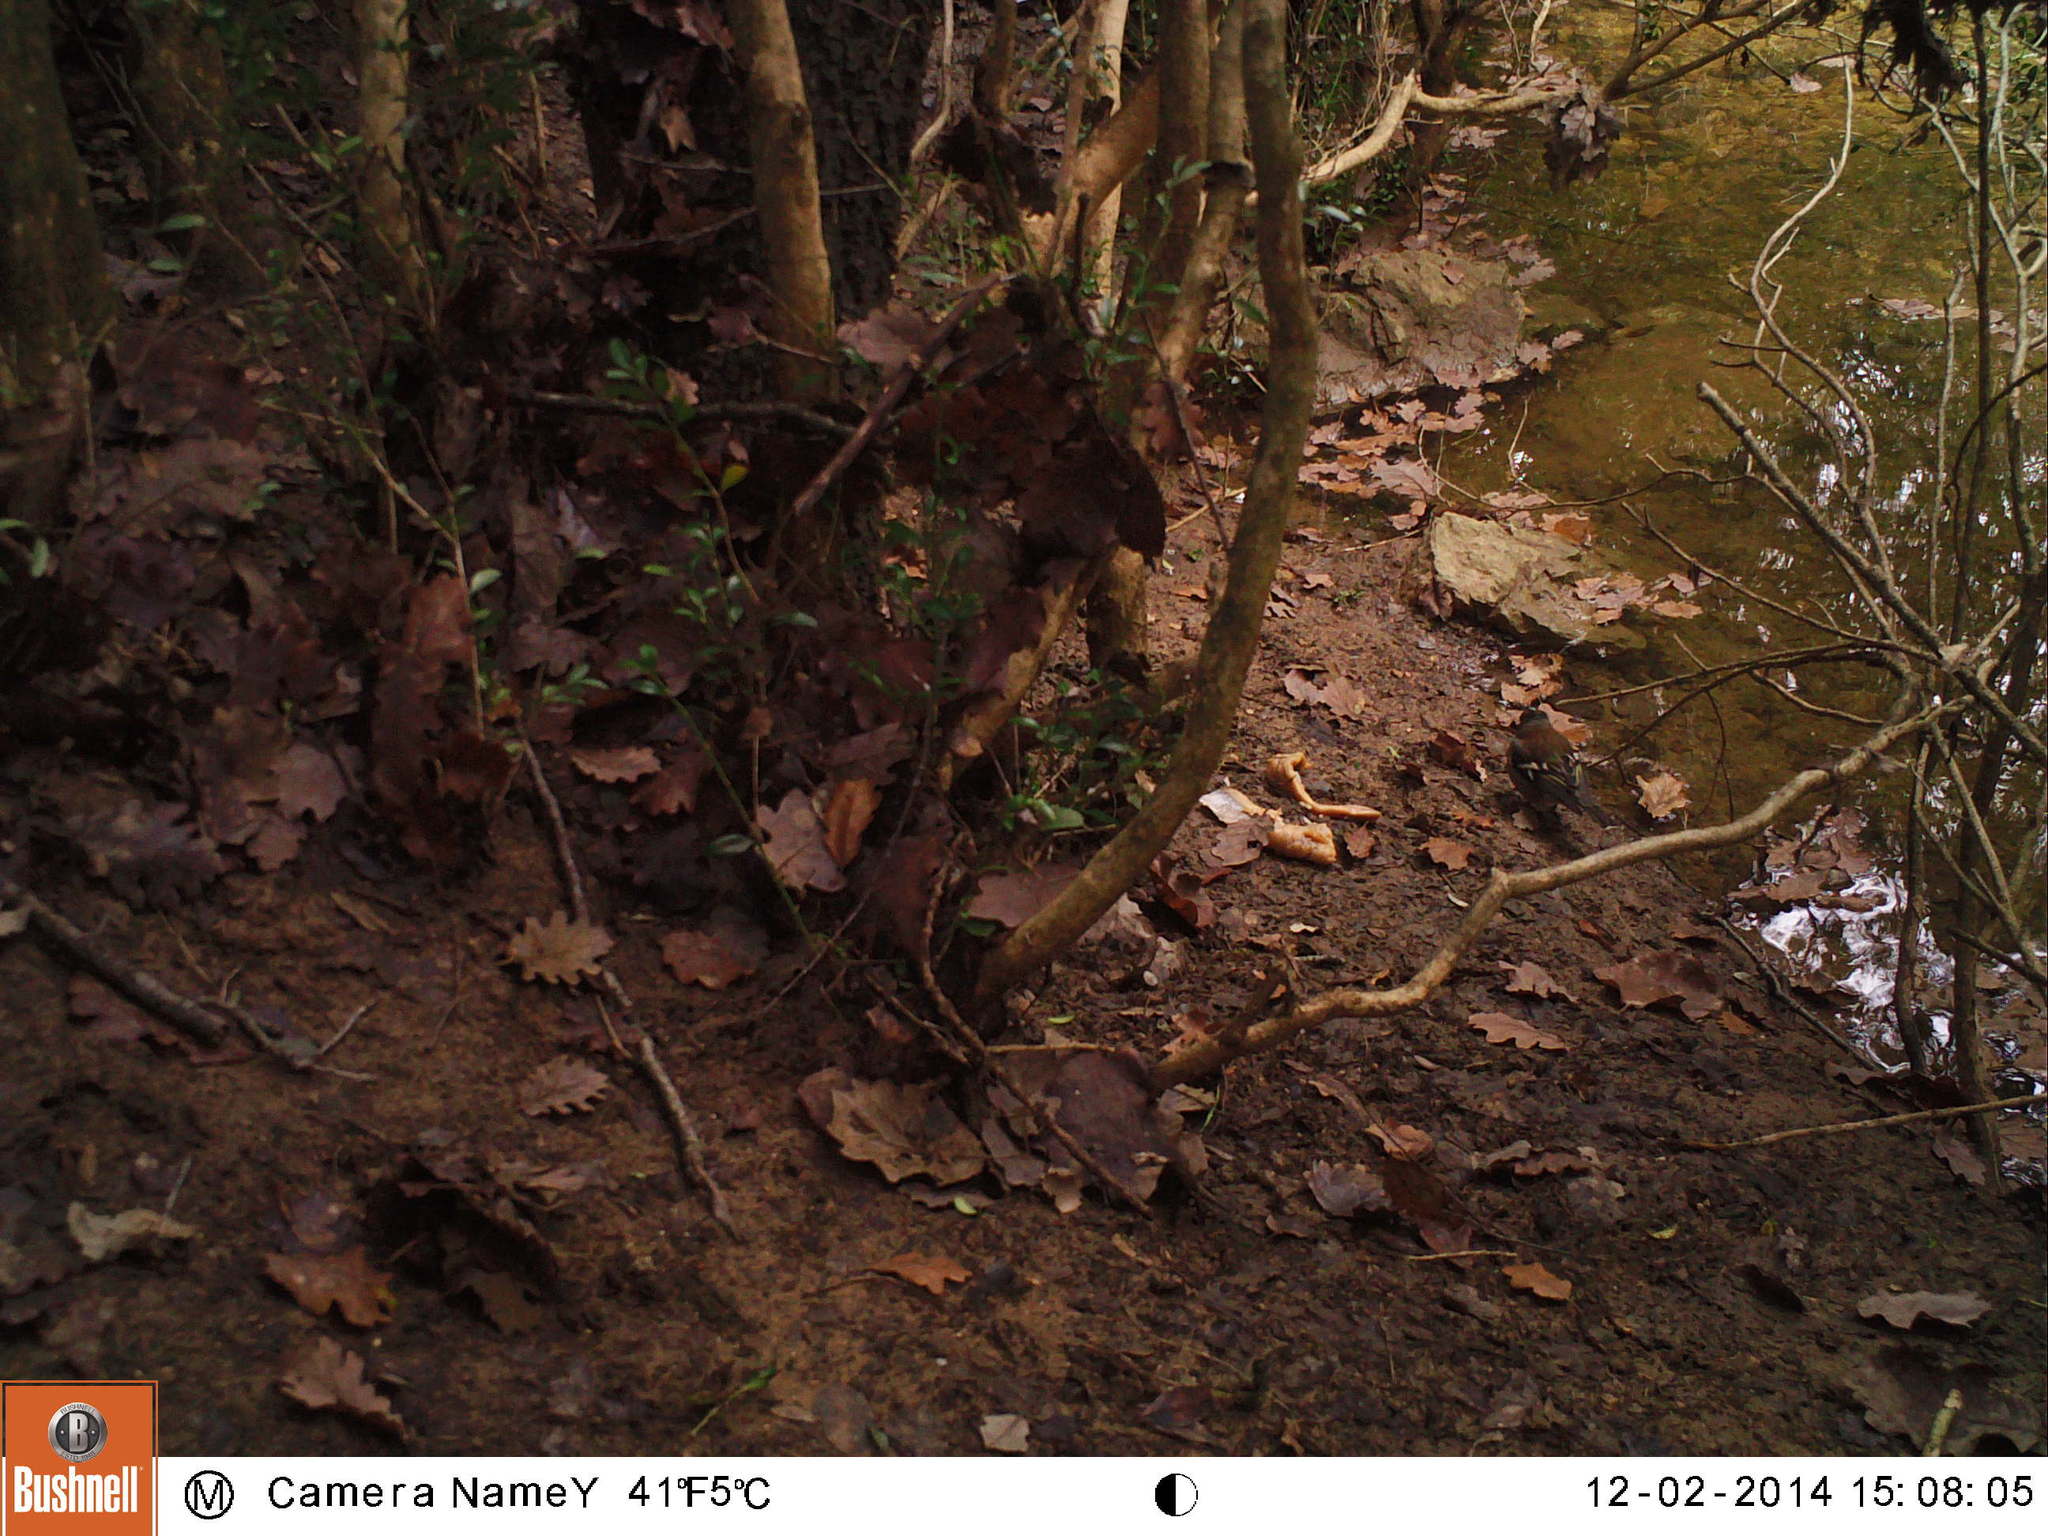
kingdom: Animalia
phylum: Chordata
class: Aves
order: Passeriformes
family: Fringillidae
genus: Fringilla
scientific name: Fringilla coelebs
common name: Common chaffinch
